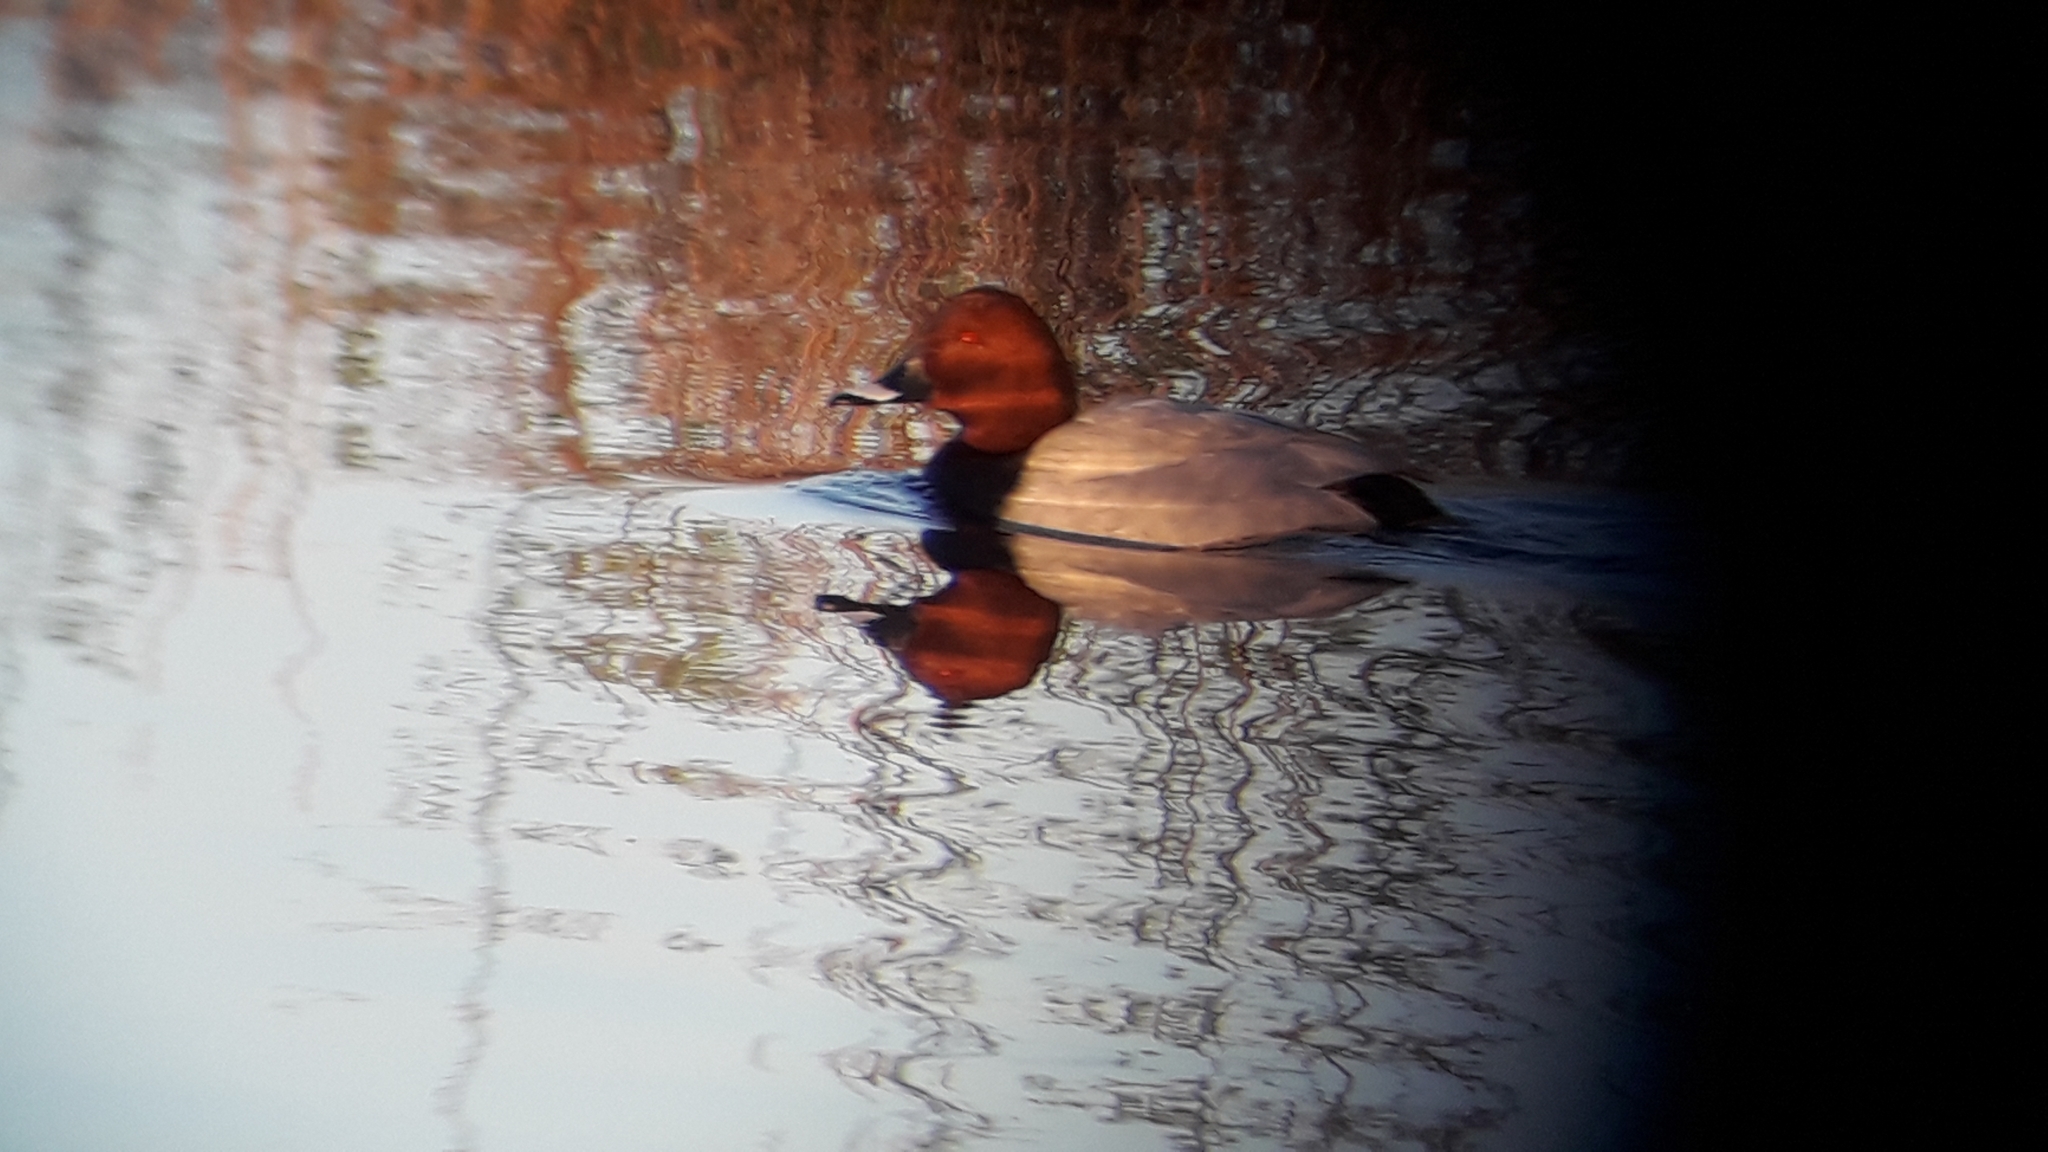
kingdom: Animalia
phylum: Chordata
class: Aves
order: Anseriformes
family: Anatidae
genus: Aythya
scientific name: Aythya ferina
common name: Common pochard
